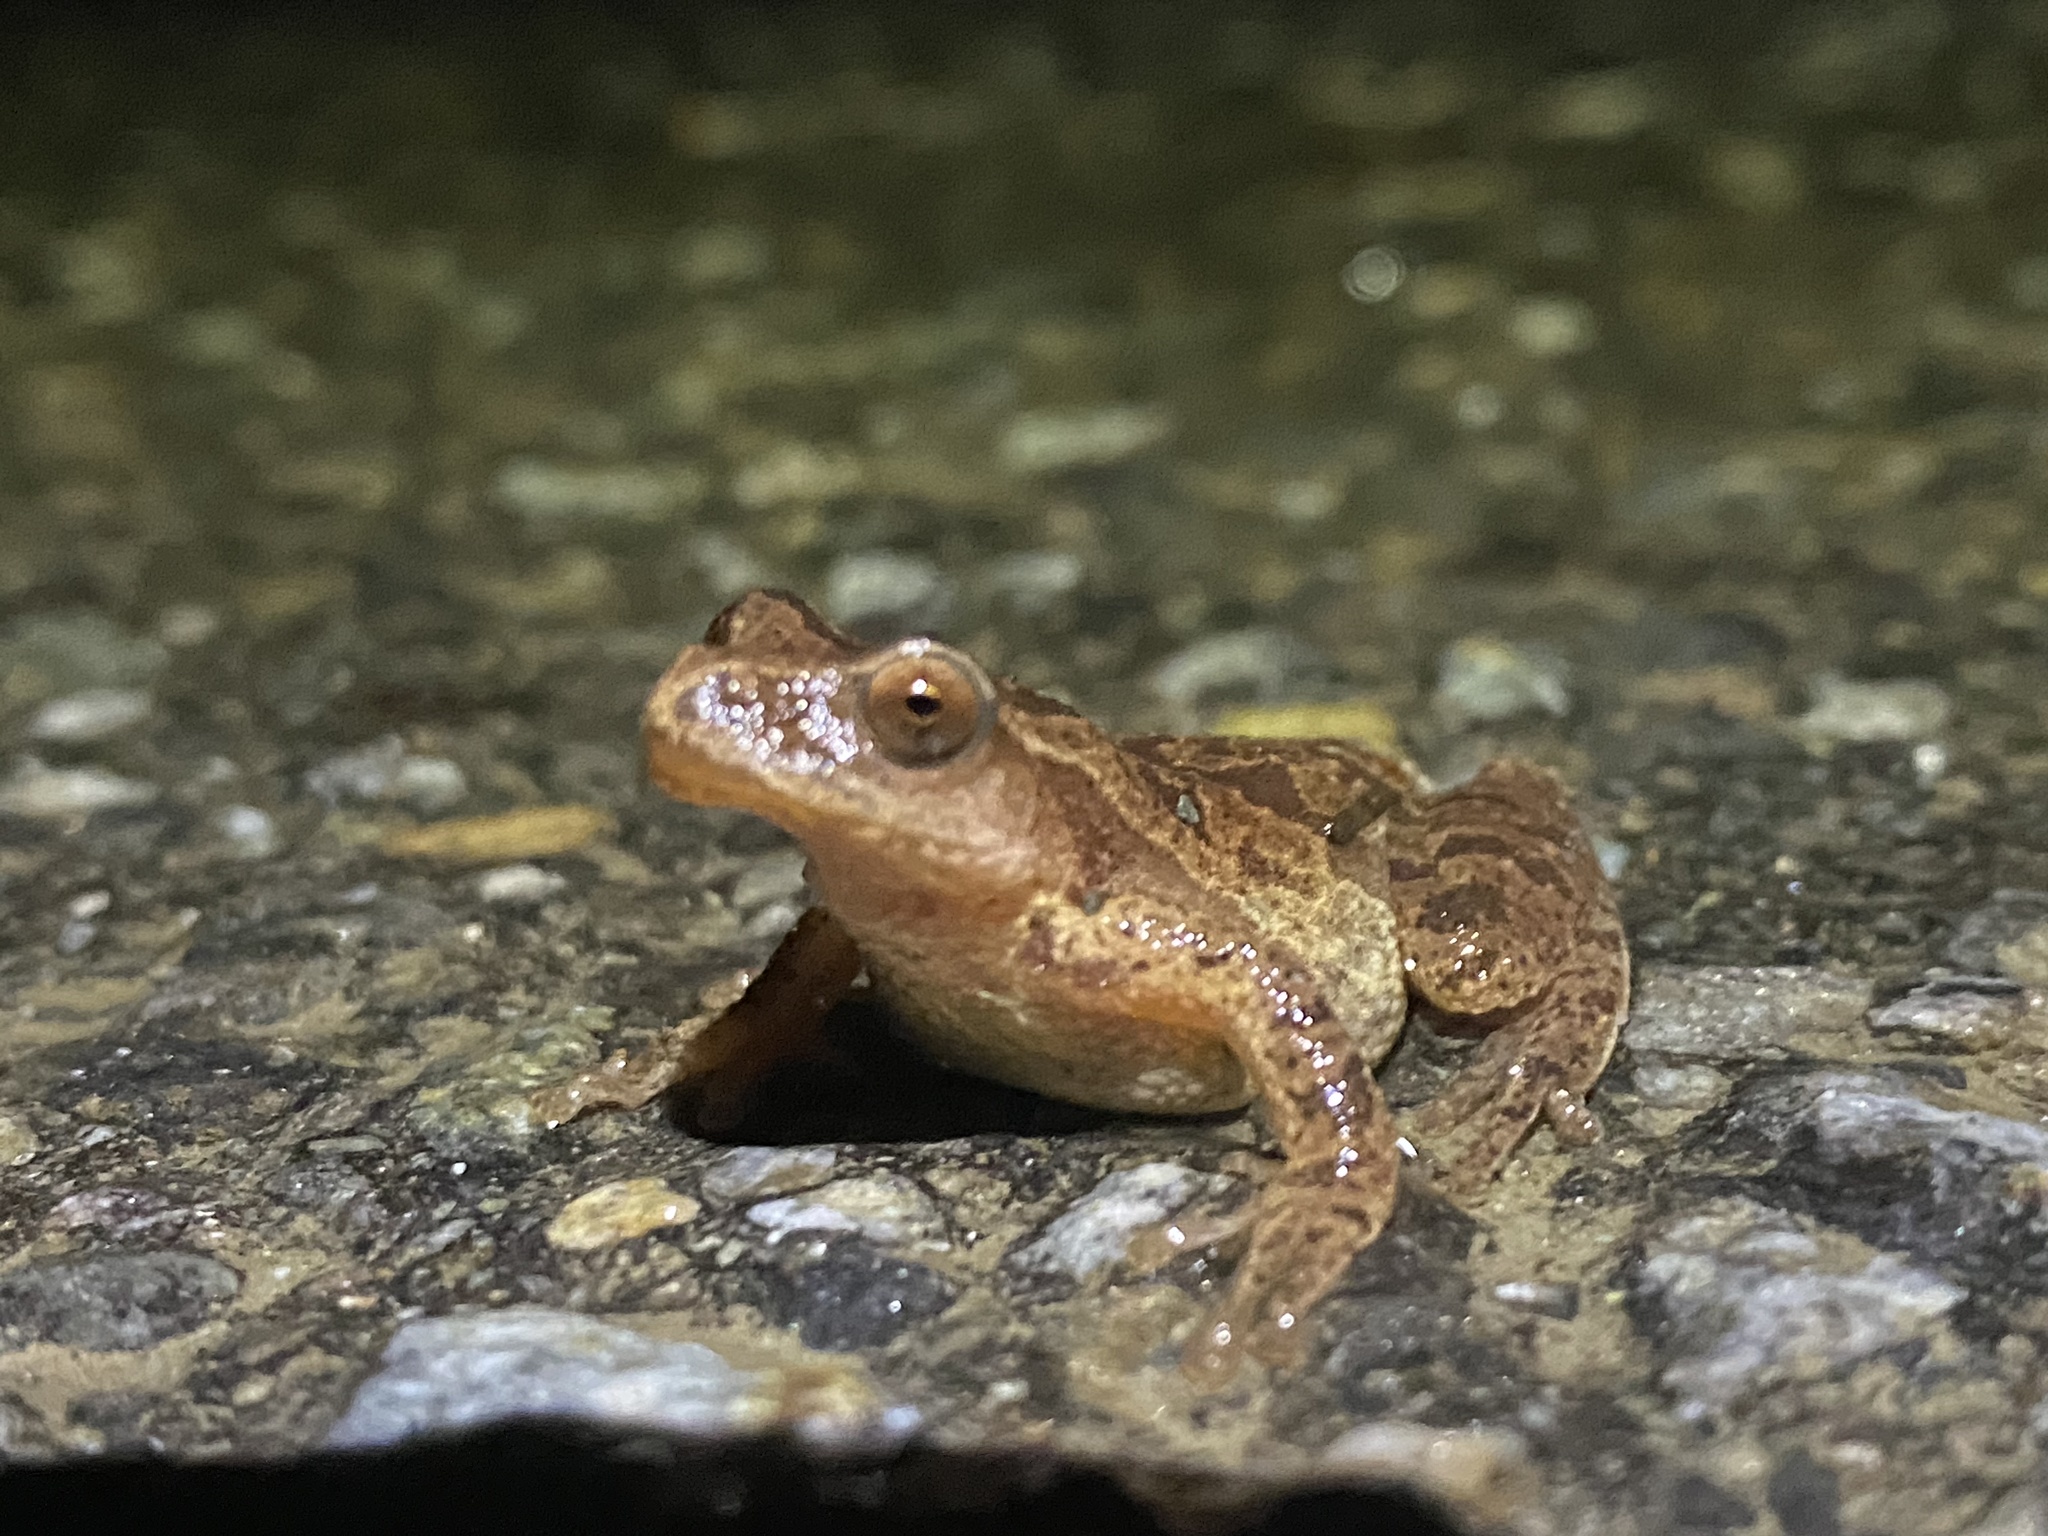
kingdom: Animalia
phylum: Chordata
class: Amphibia
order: Anura
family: Hylidae
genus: Pseudacris
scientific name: Pseudacris crucifer
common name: Spring peeper
